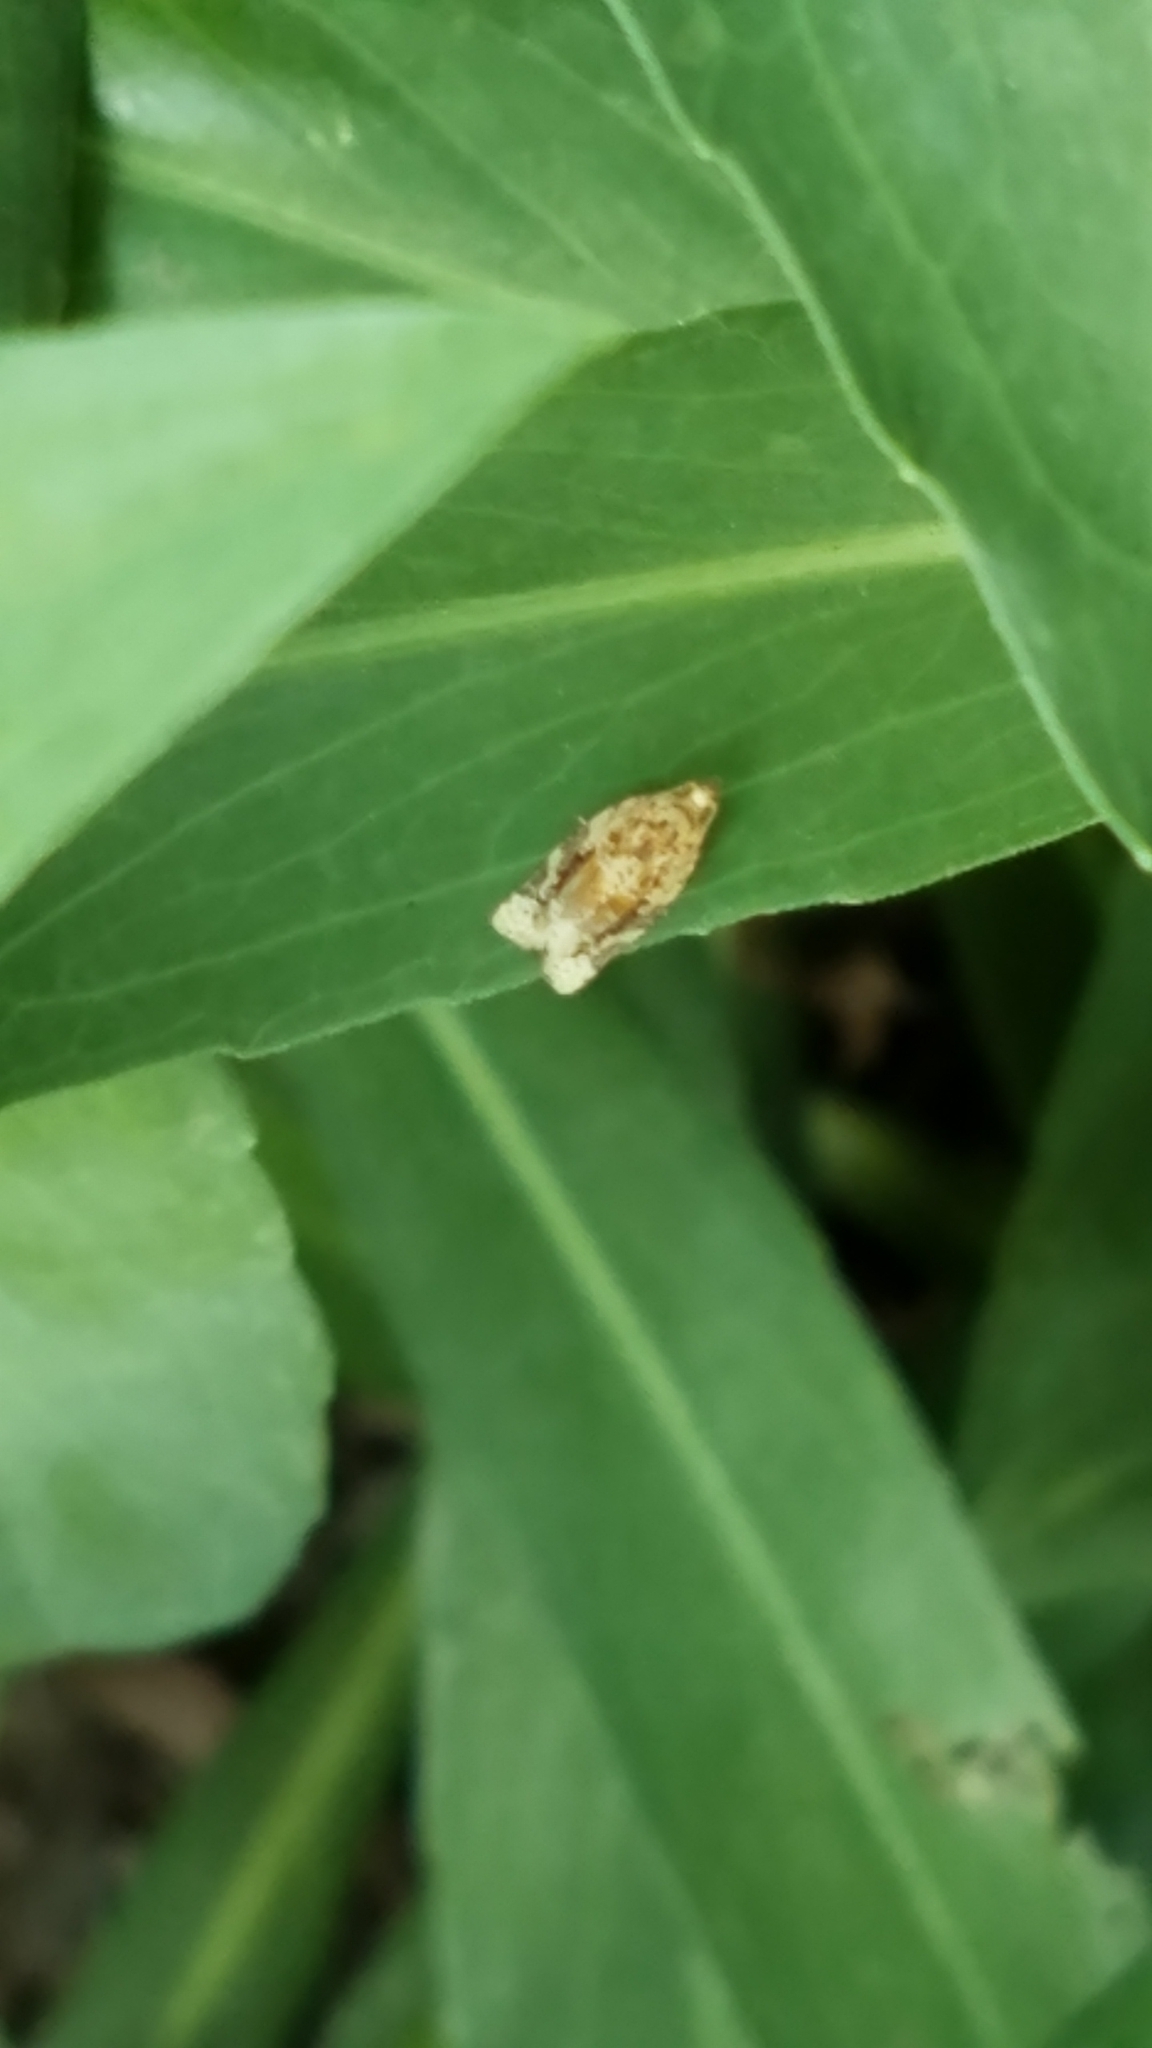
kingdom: Animalia
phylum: Arthropoda
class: Insecta
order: Lepidoptera
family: Tortricidae
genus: Argyrotaenia
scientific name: Argyrotaenia velutinana
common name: Red-banded leafroller moth
